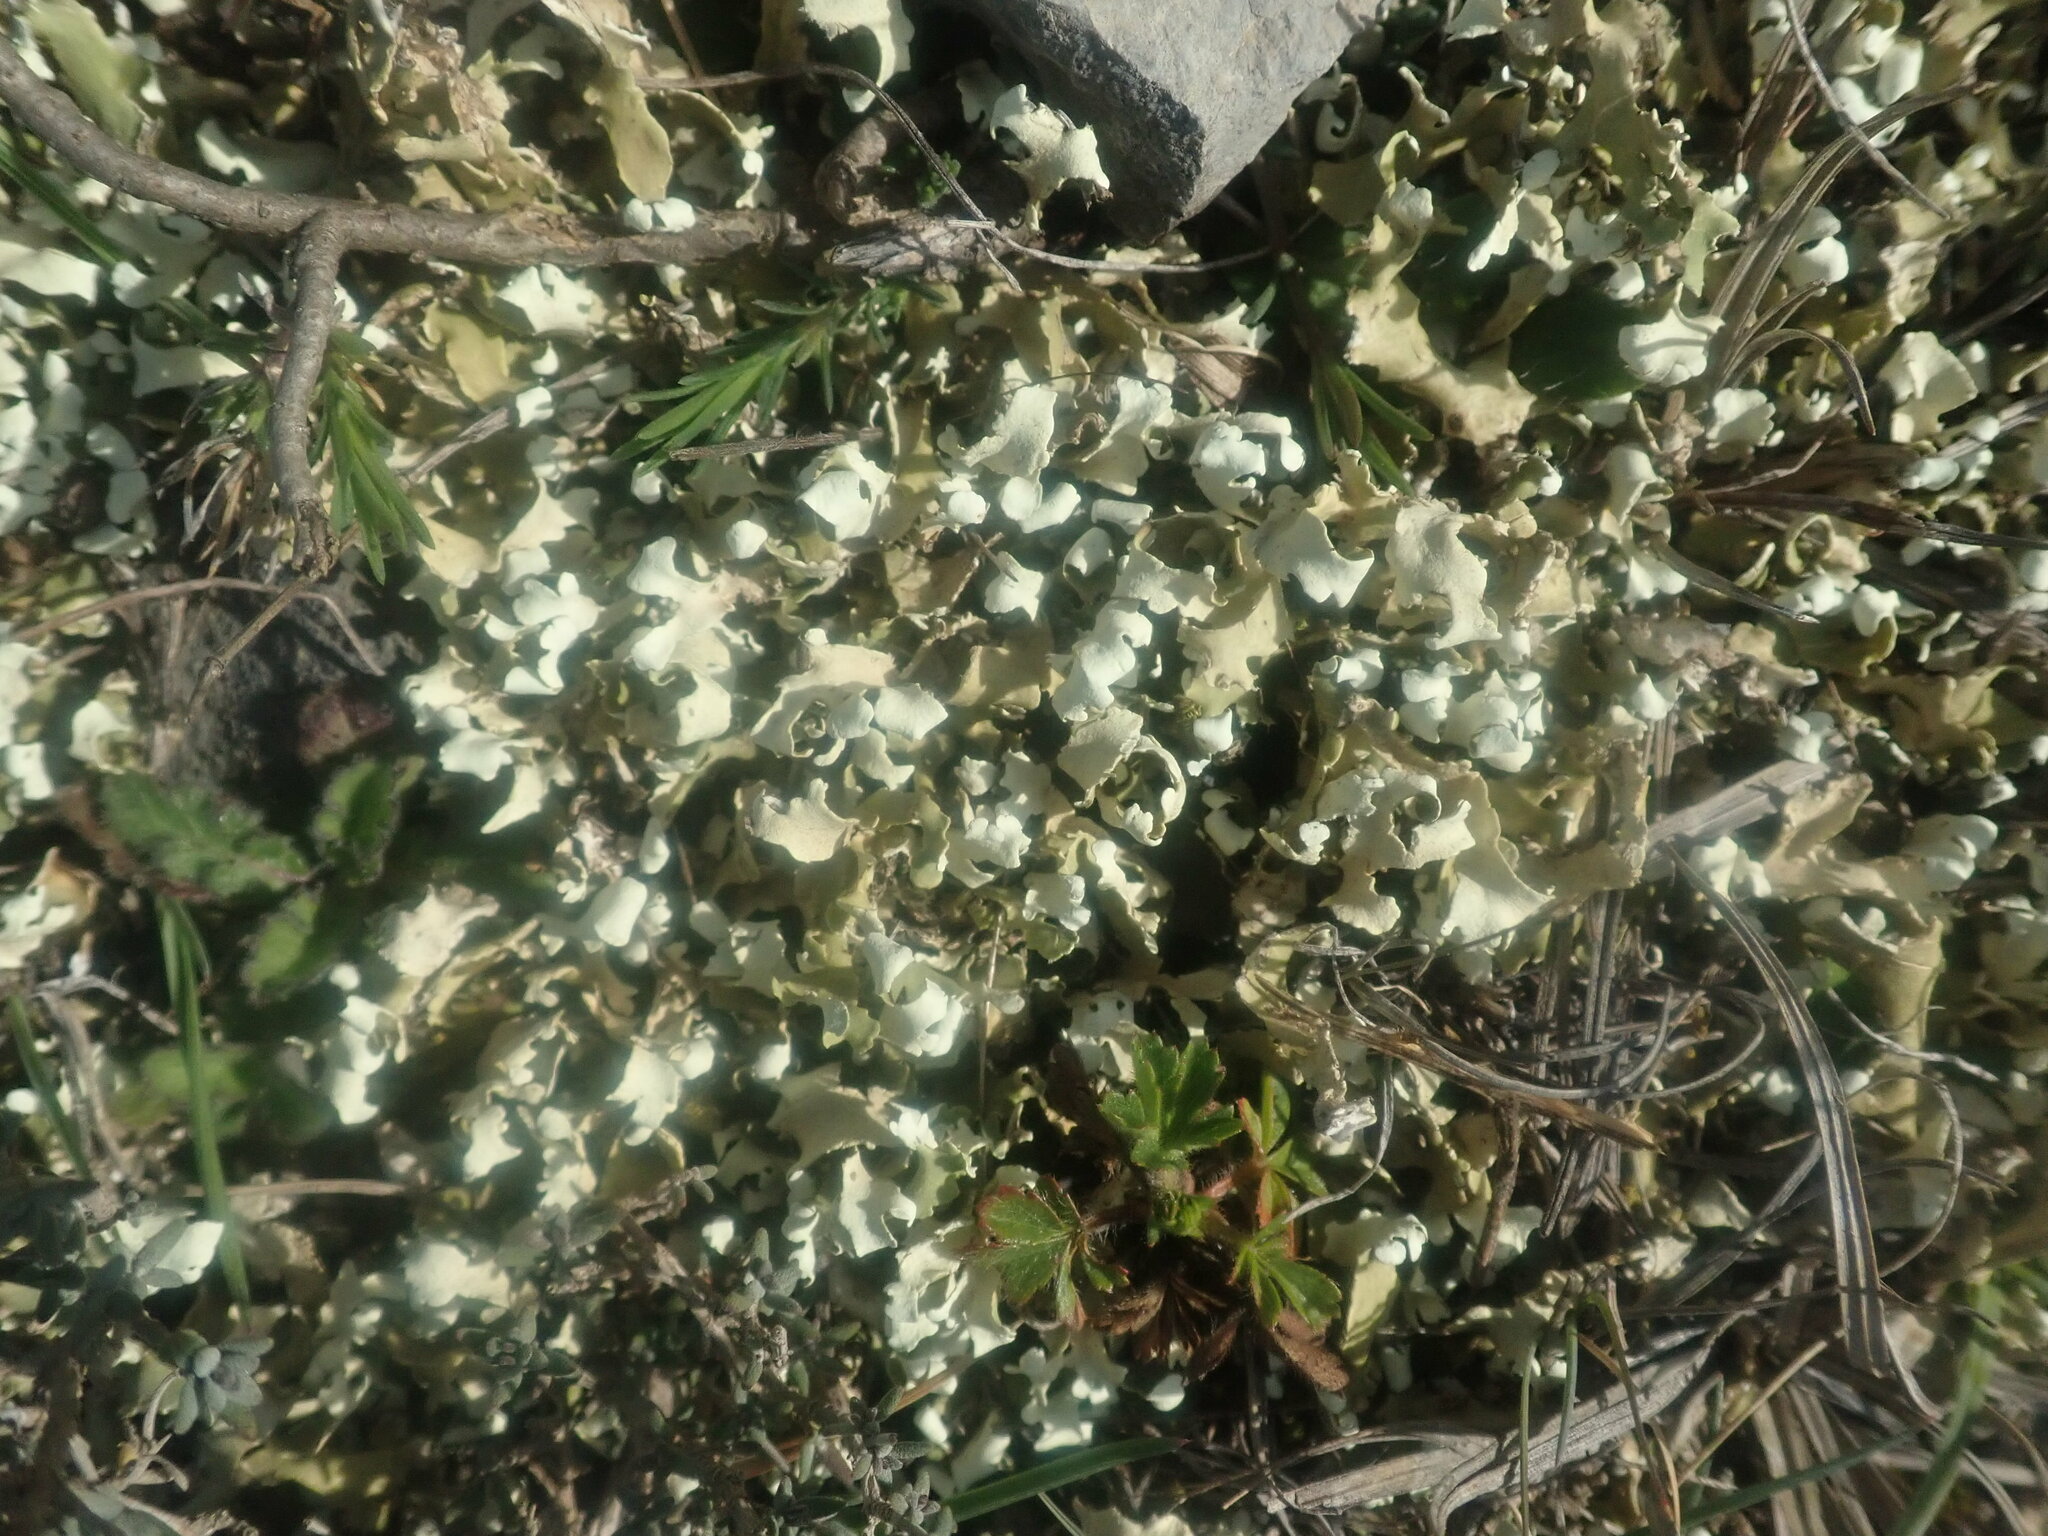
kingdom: Fungi
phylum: Ascomycota
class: Lecanoromycetes
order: Lecanorales
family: Cladoniaceae
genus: Cladonia
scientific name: Cladonia foliacea
